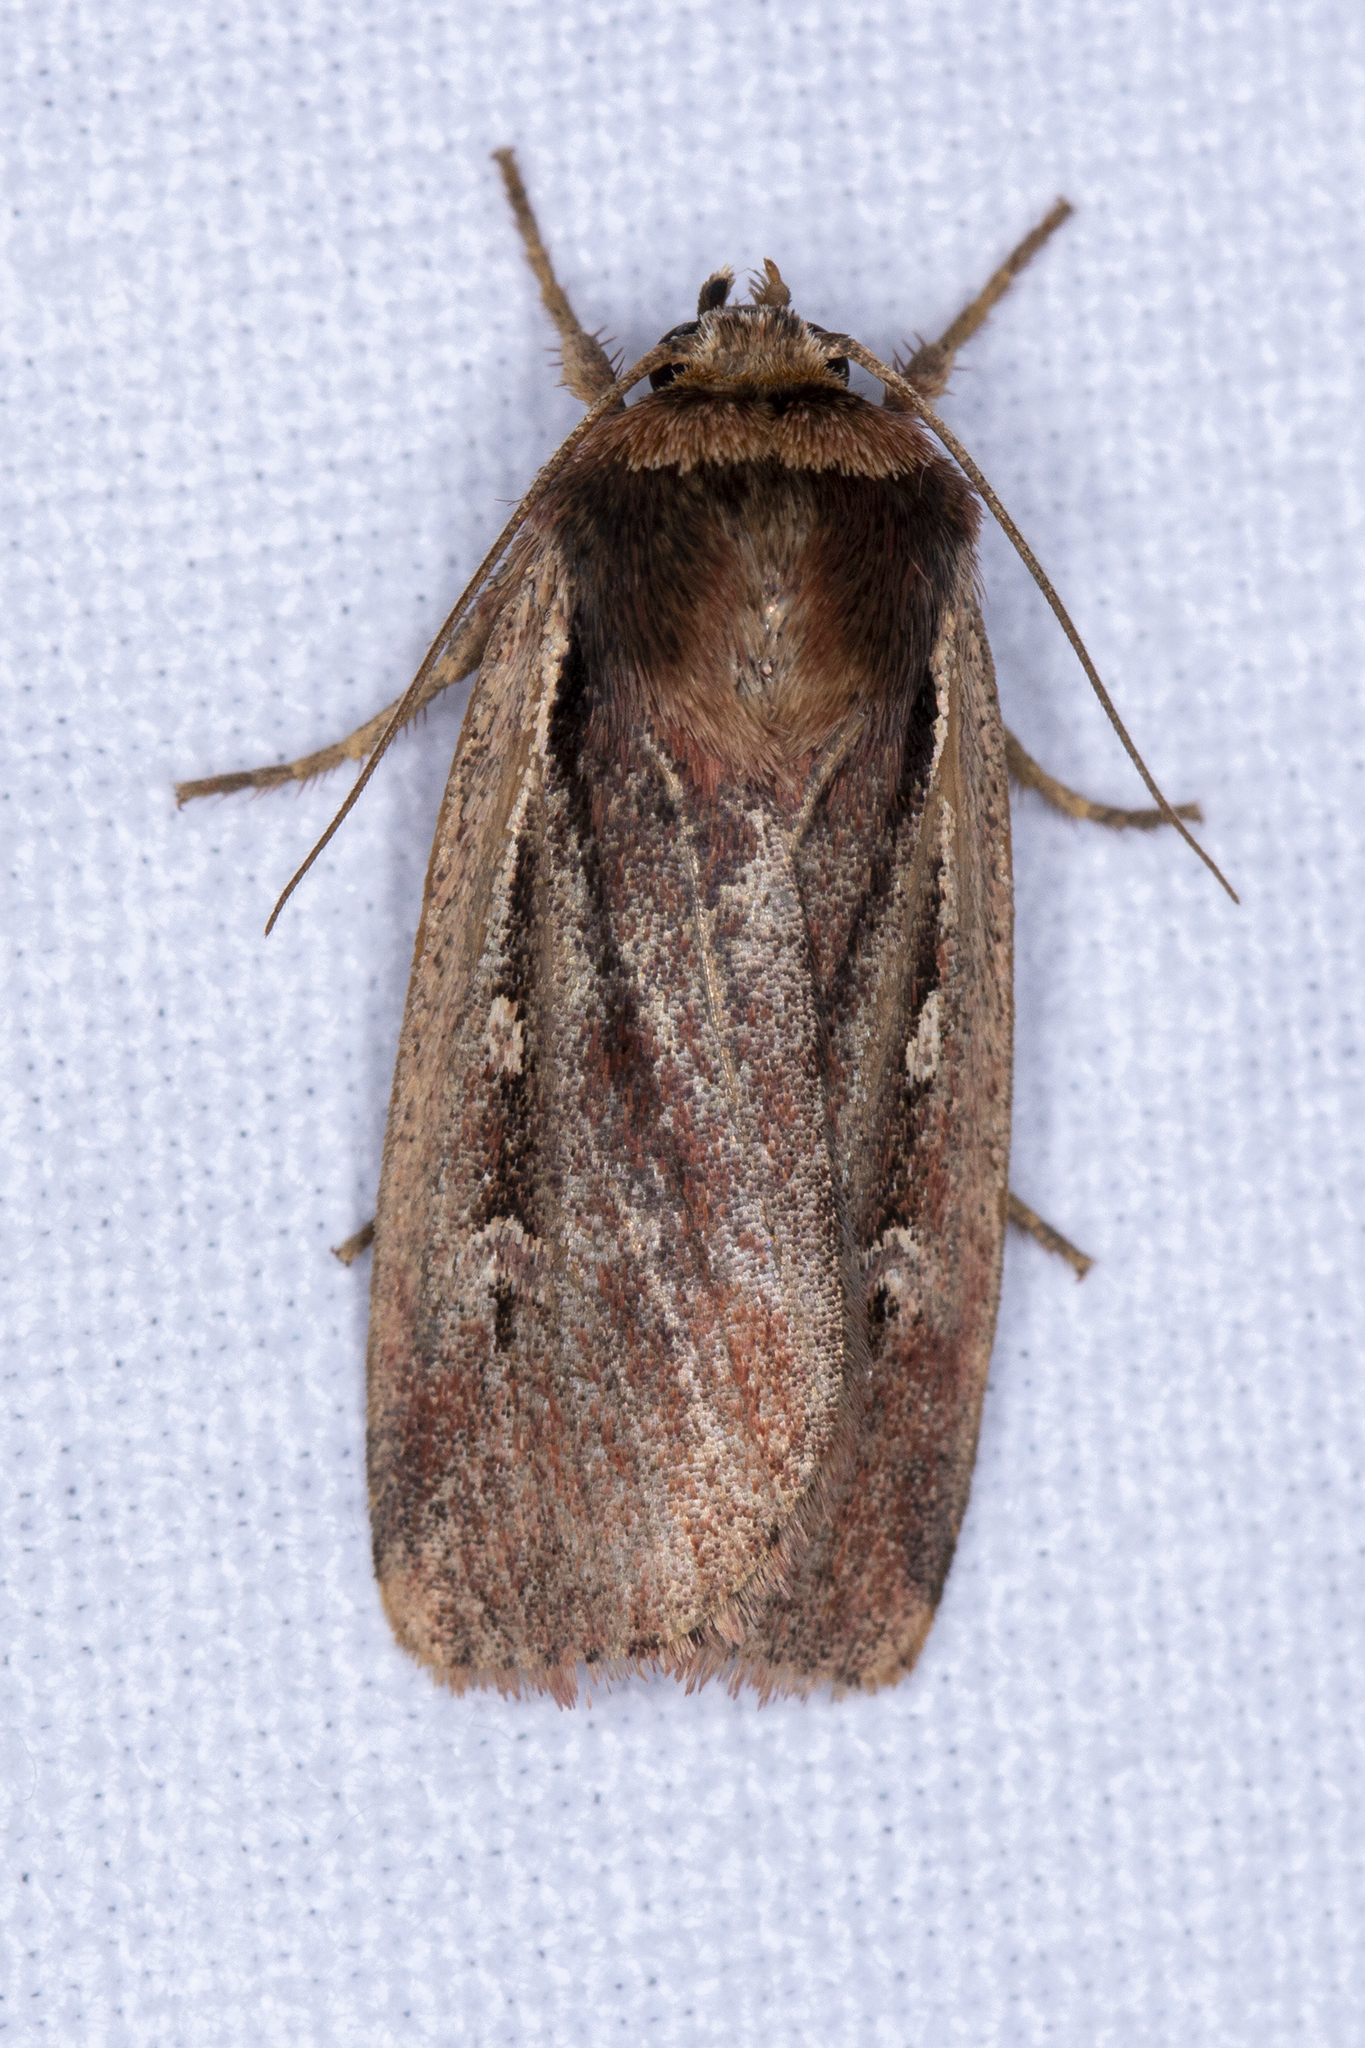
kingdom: Animalia
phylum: Arthropoda
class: Insecta
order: Lepidoptera
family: Noctuidae
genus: Ochropleura
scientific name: Ochropleura plecta
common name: Flame shoulder
